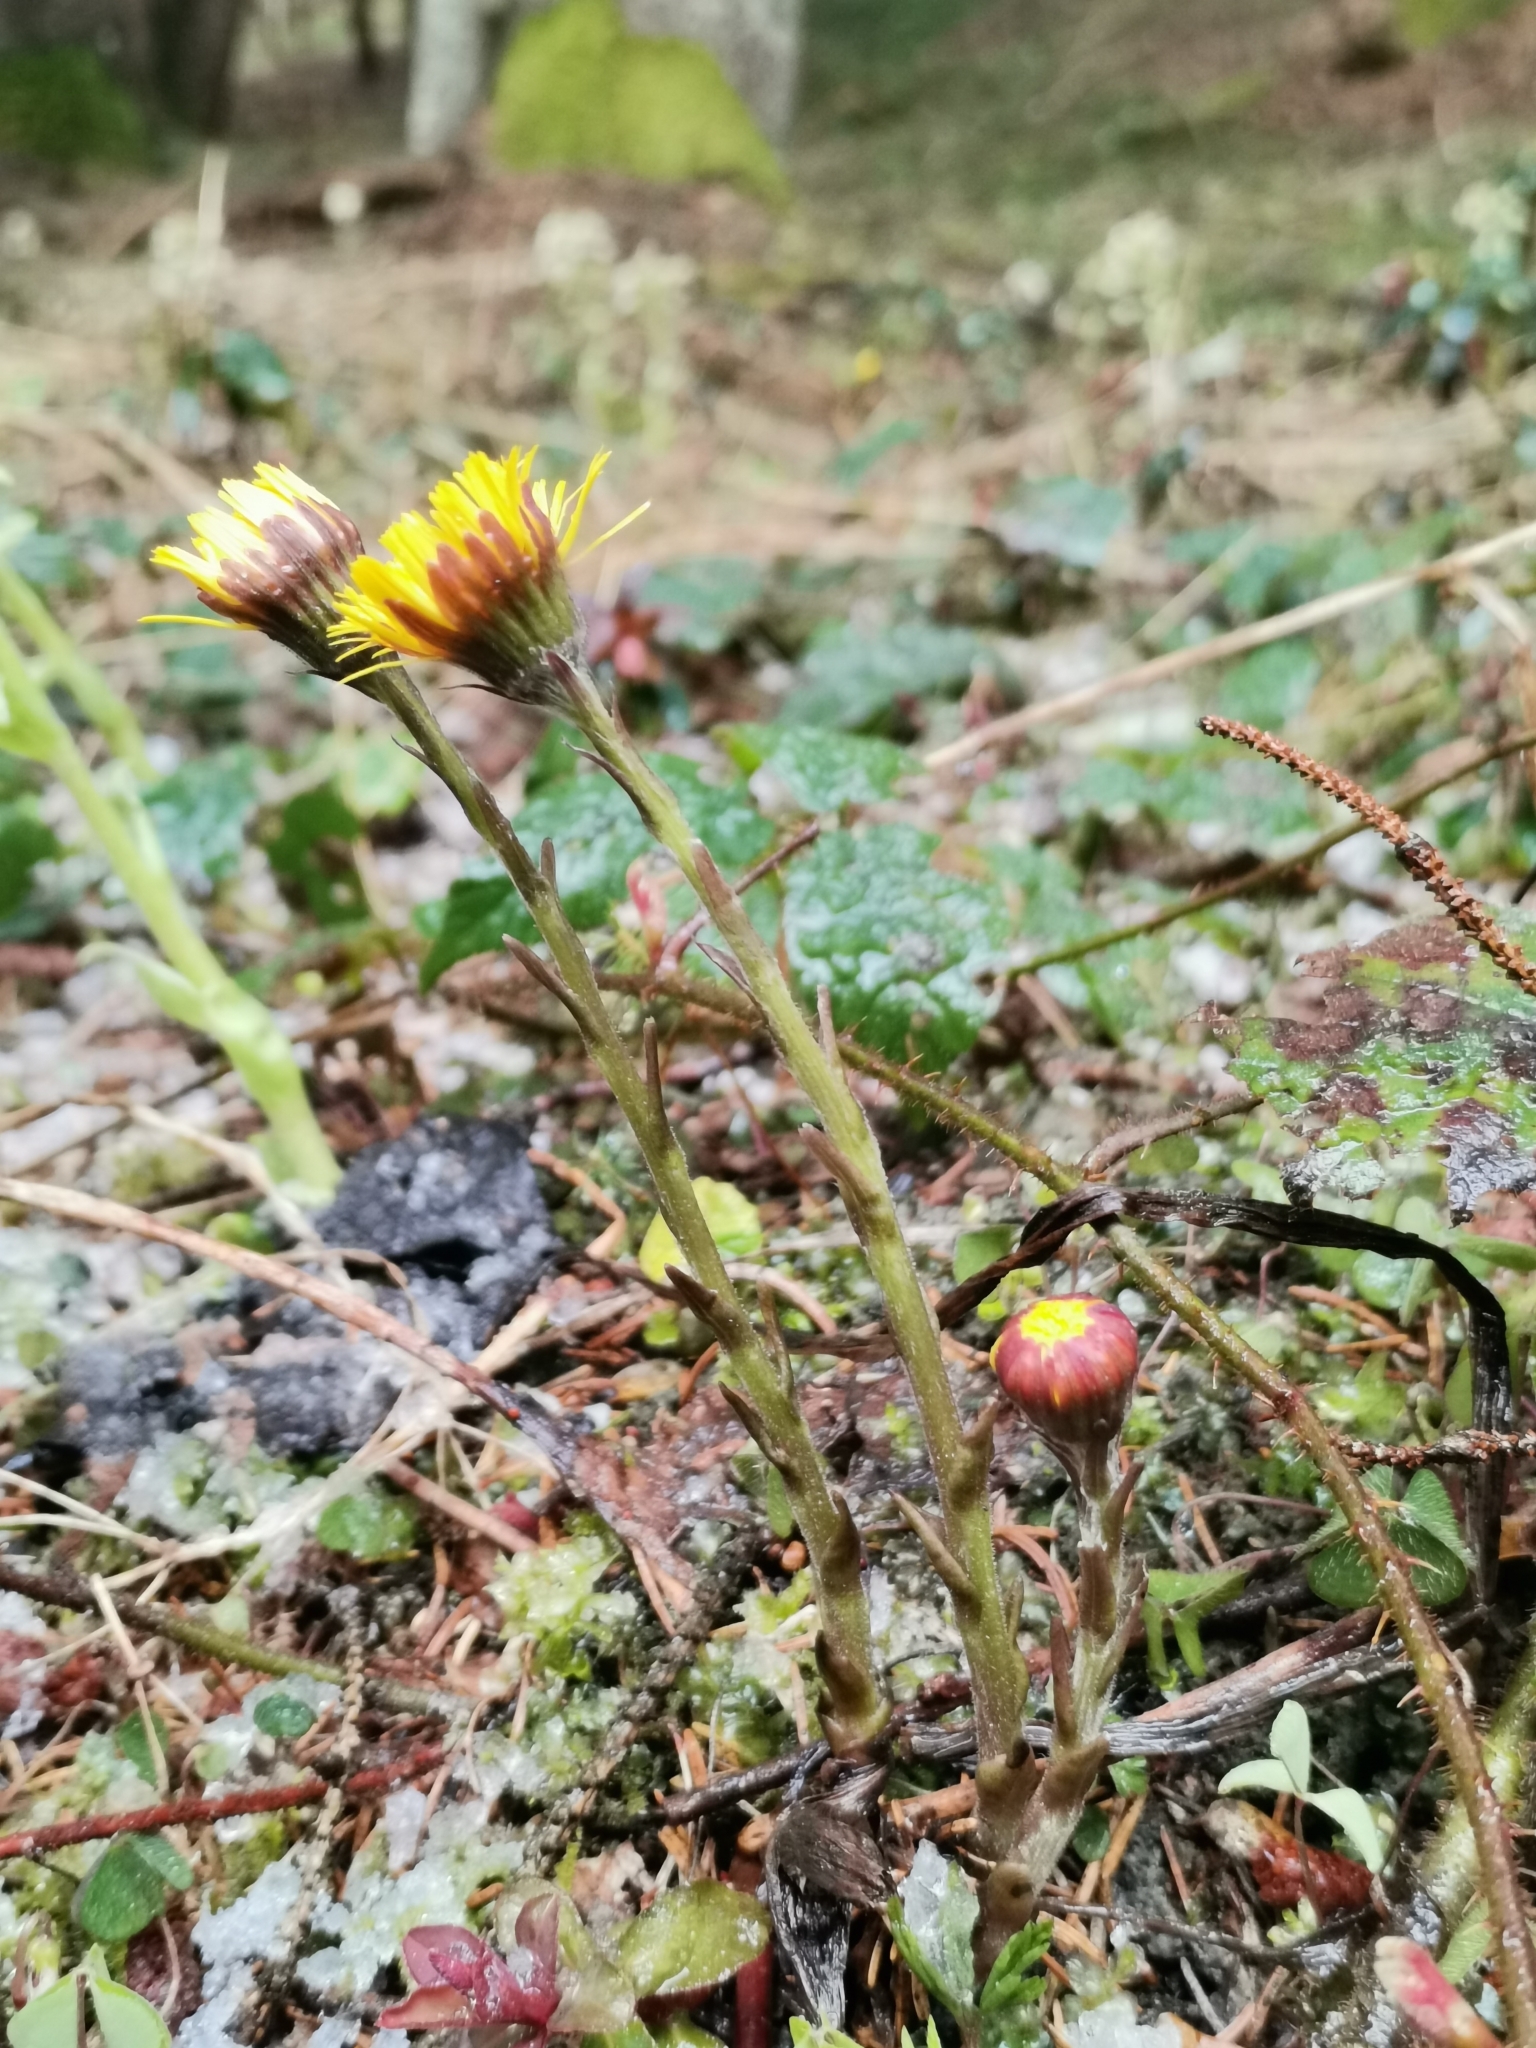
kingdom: Plantae
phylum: Tracheophyta
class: Magnoliopsida
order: Asterales
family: Asteraceae
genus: Tussilago
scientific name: Tussilago farfara
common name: Coltsfoot
